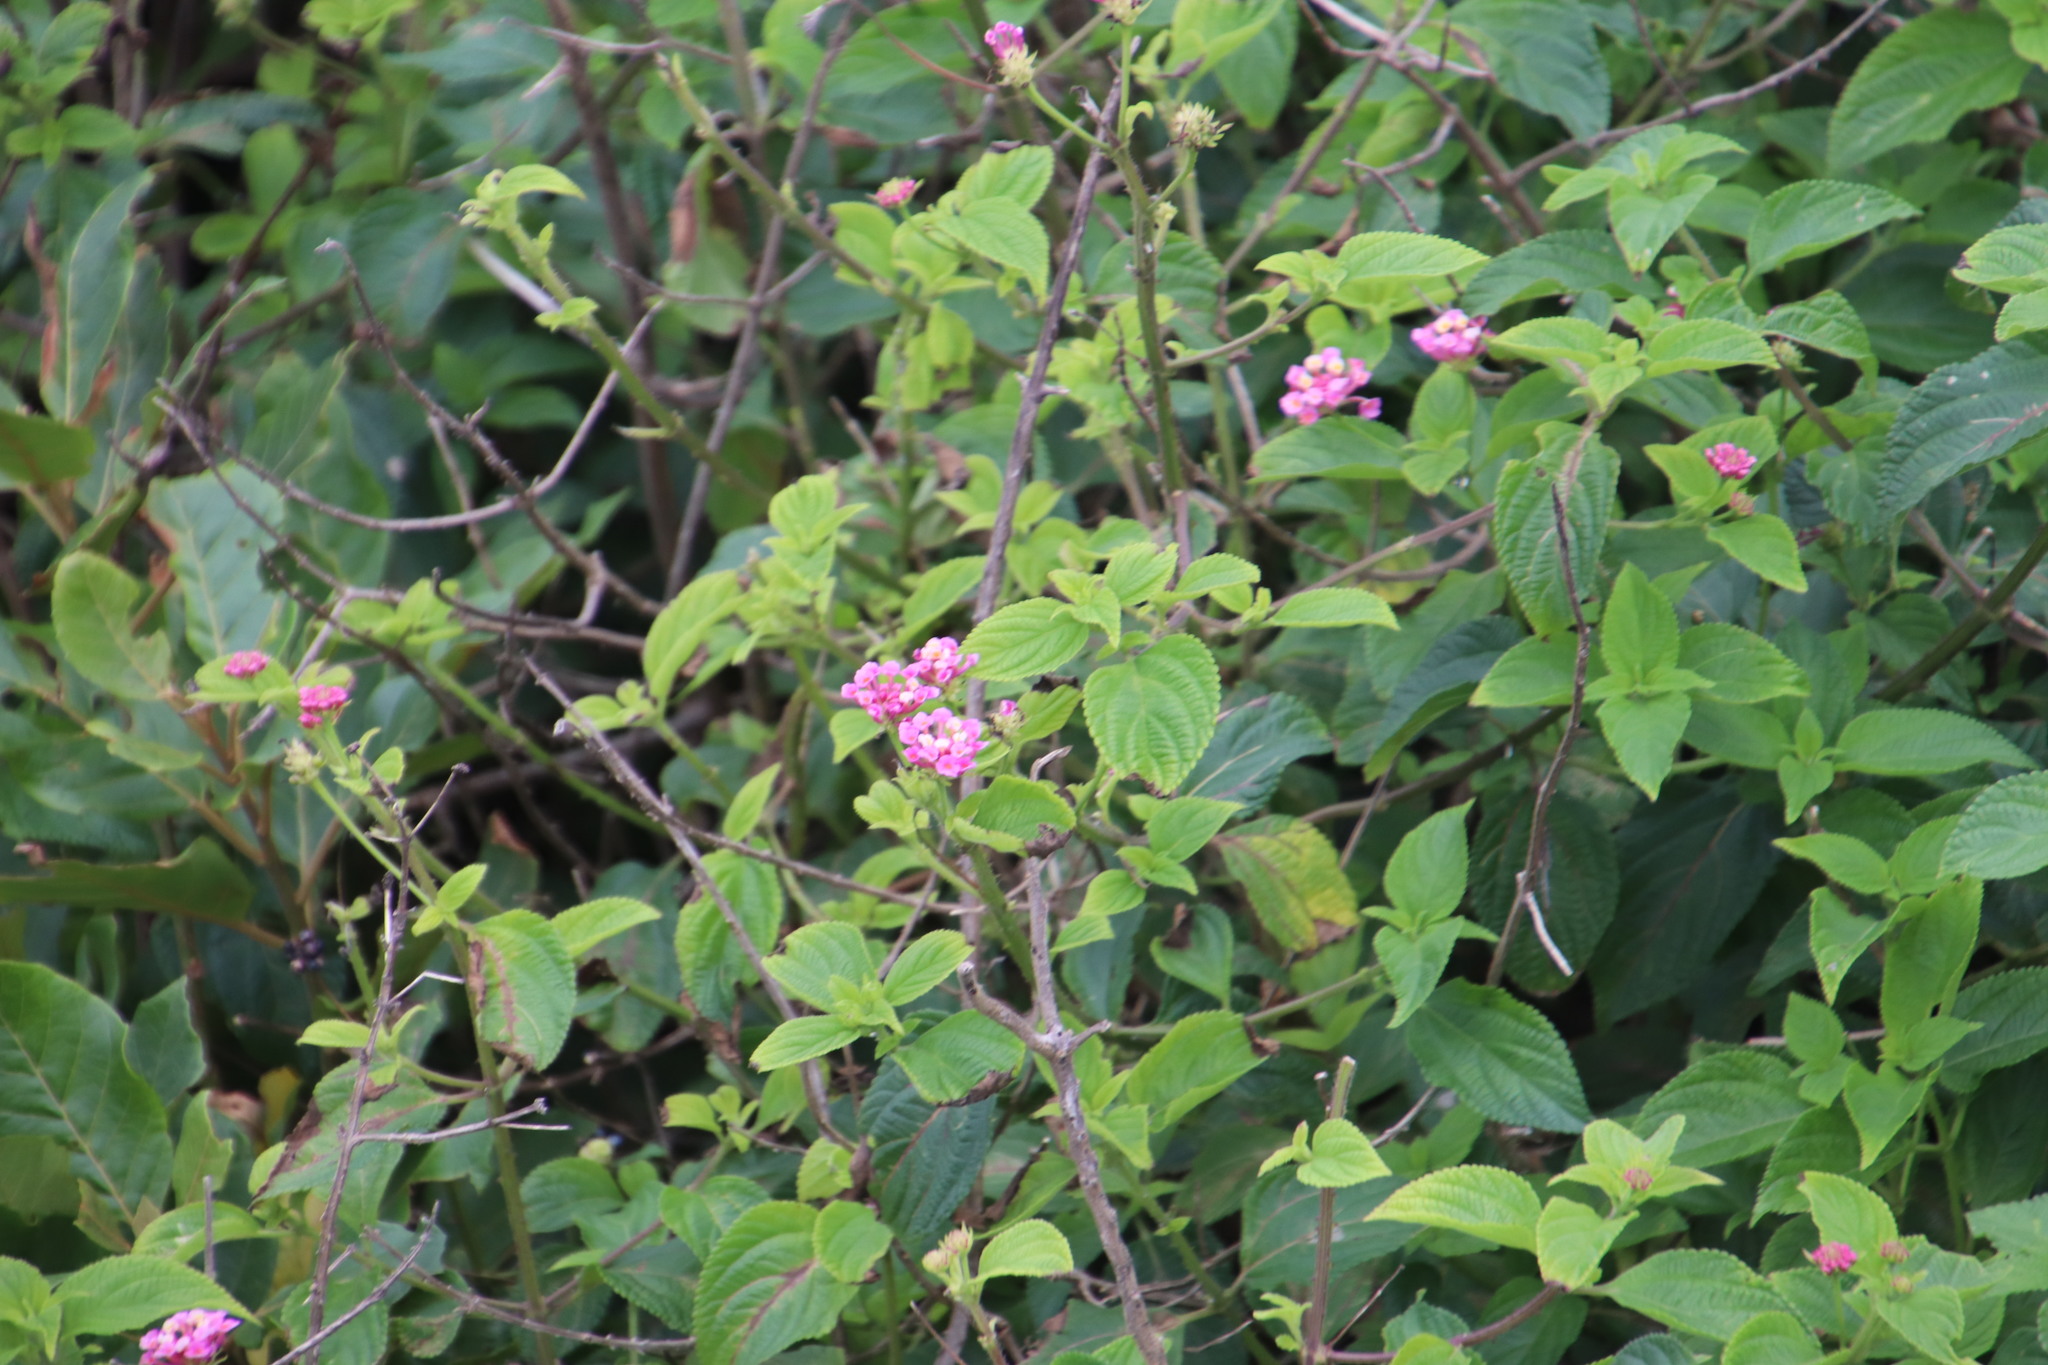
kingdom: Plantae
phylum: Tracheophyta
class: Magnoliopsida
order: Lamiales
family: Verbenaceae
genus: Lantana
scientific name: Lantana camara
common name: Lantana
